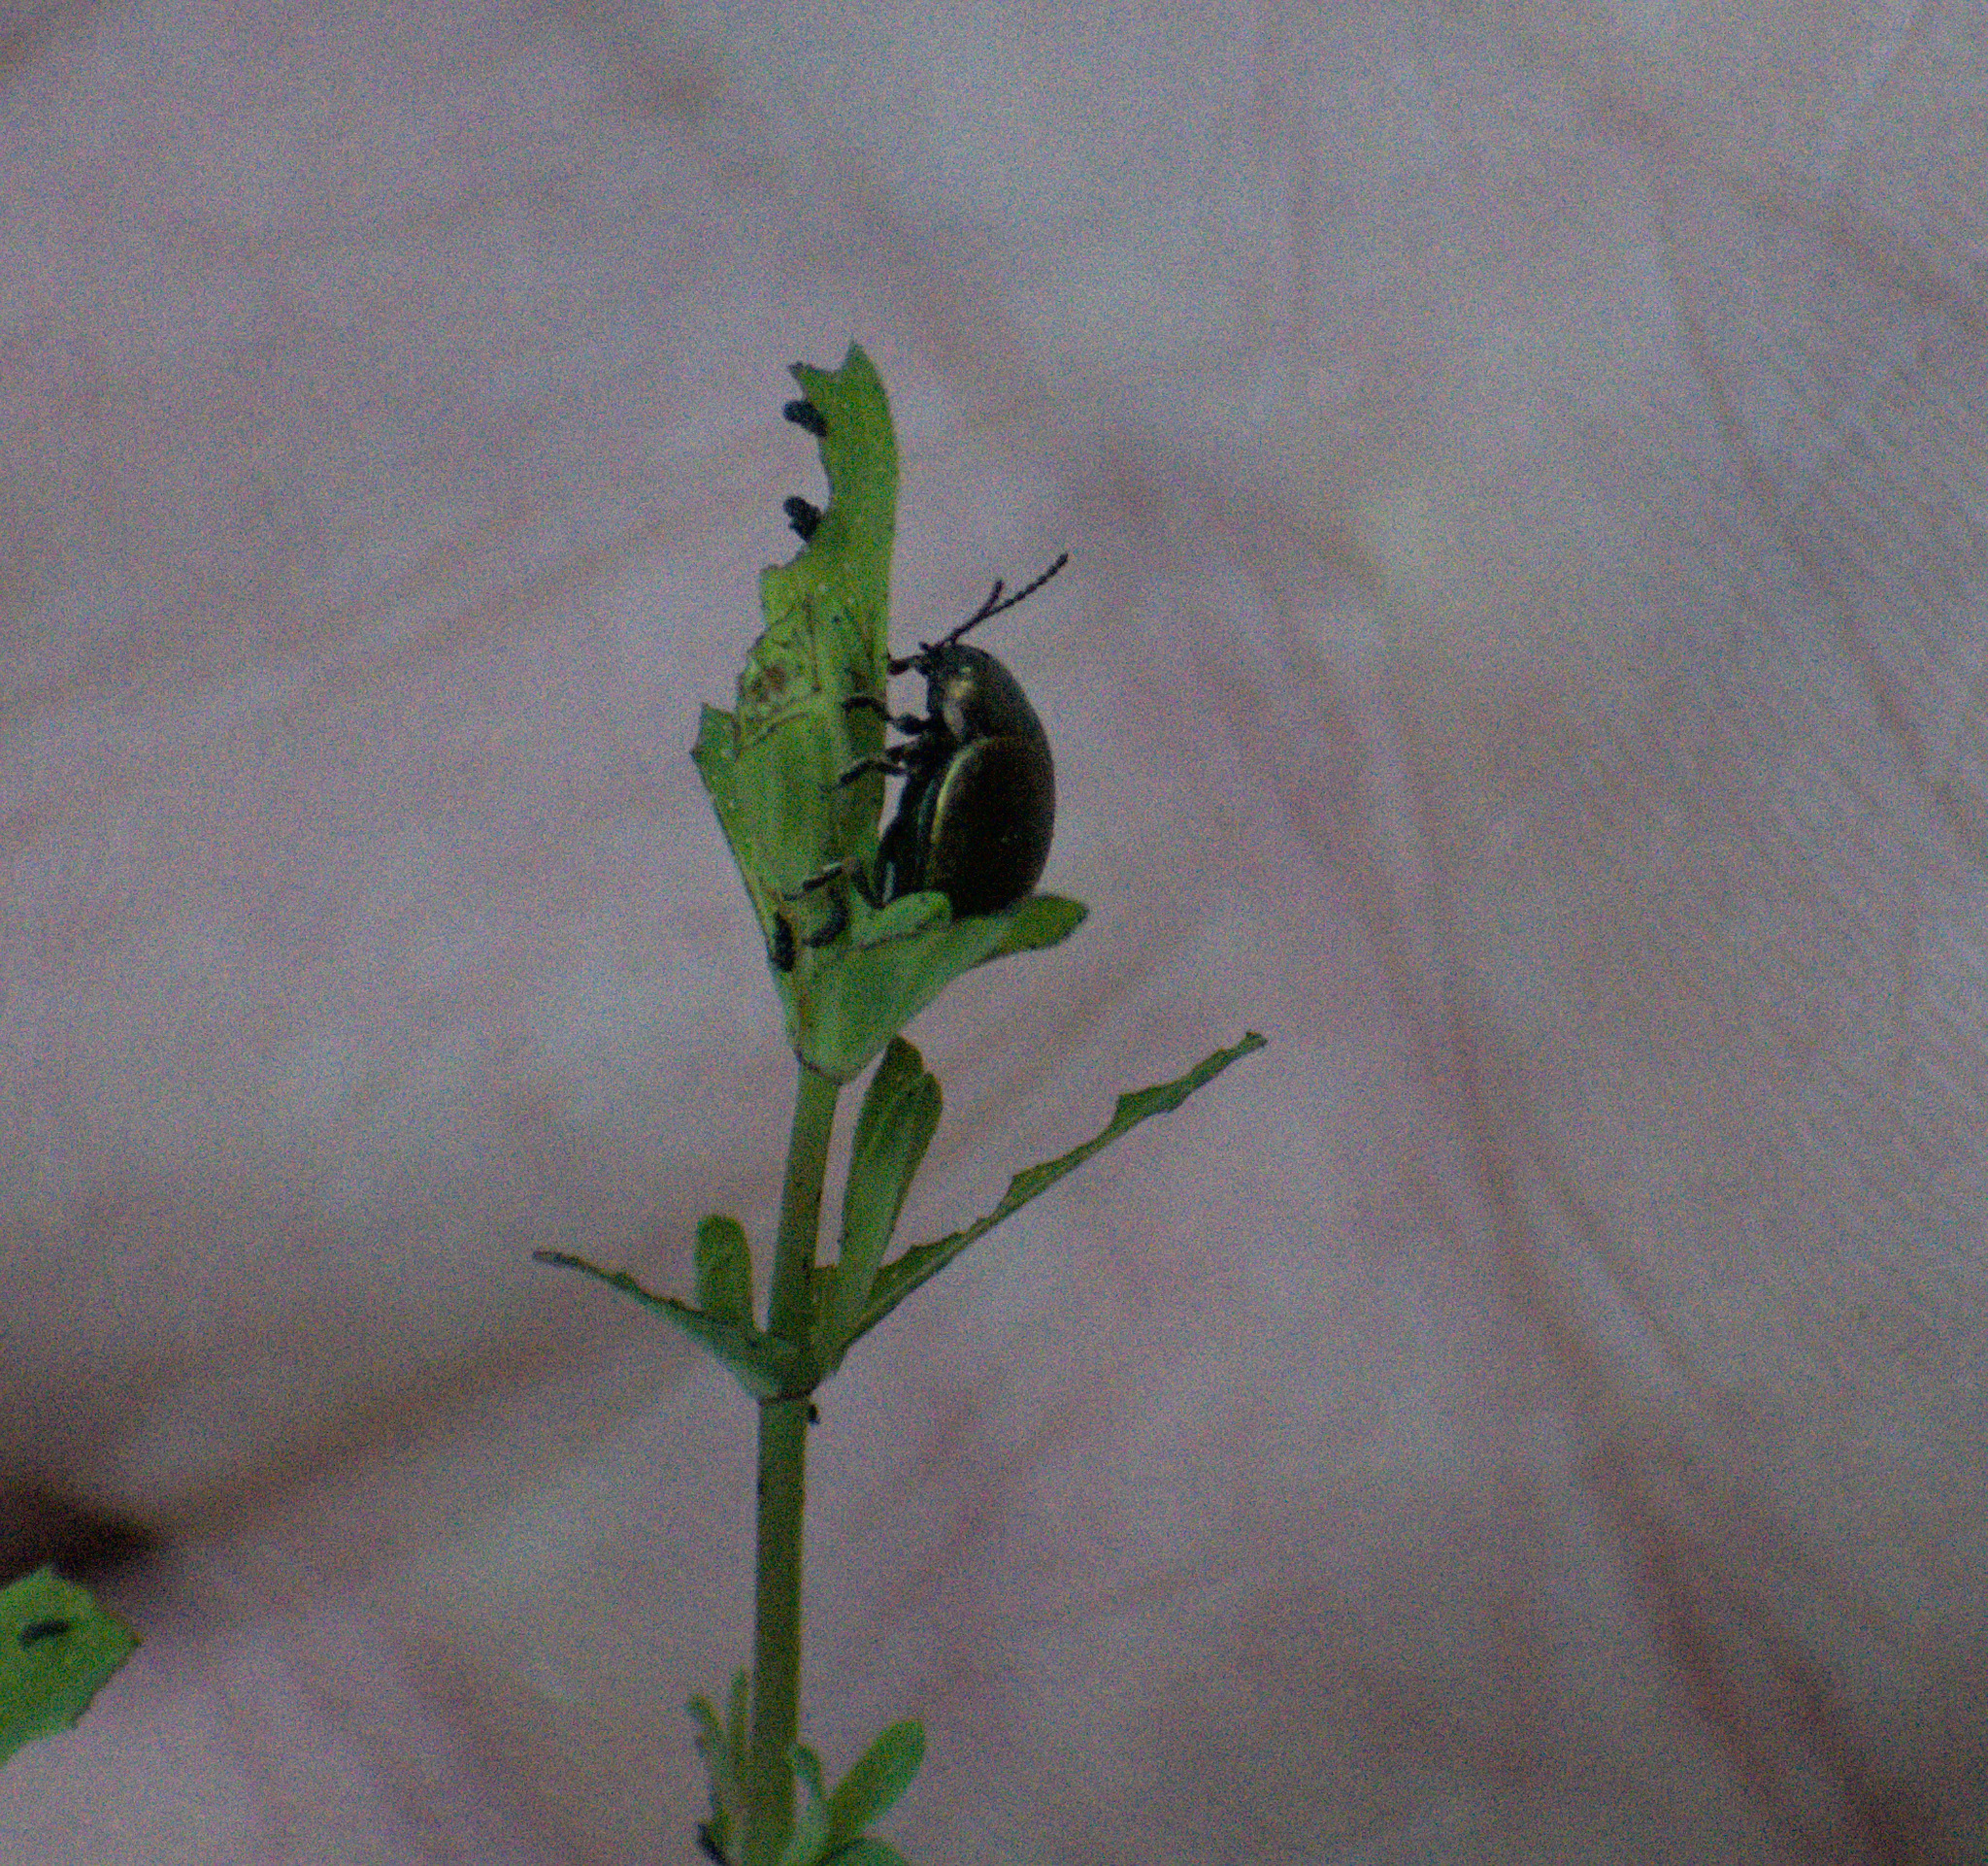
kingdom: Animalia
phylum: Arthropoda
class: Insecta
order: Coleoptera
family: Chrysomelidae
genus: Chrysolina
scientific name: Chrysolina hyperici
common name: St. johnswort beetle
